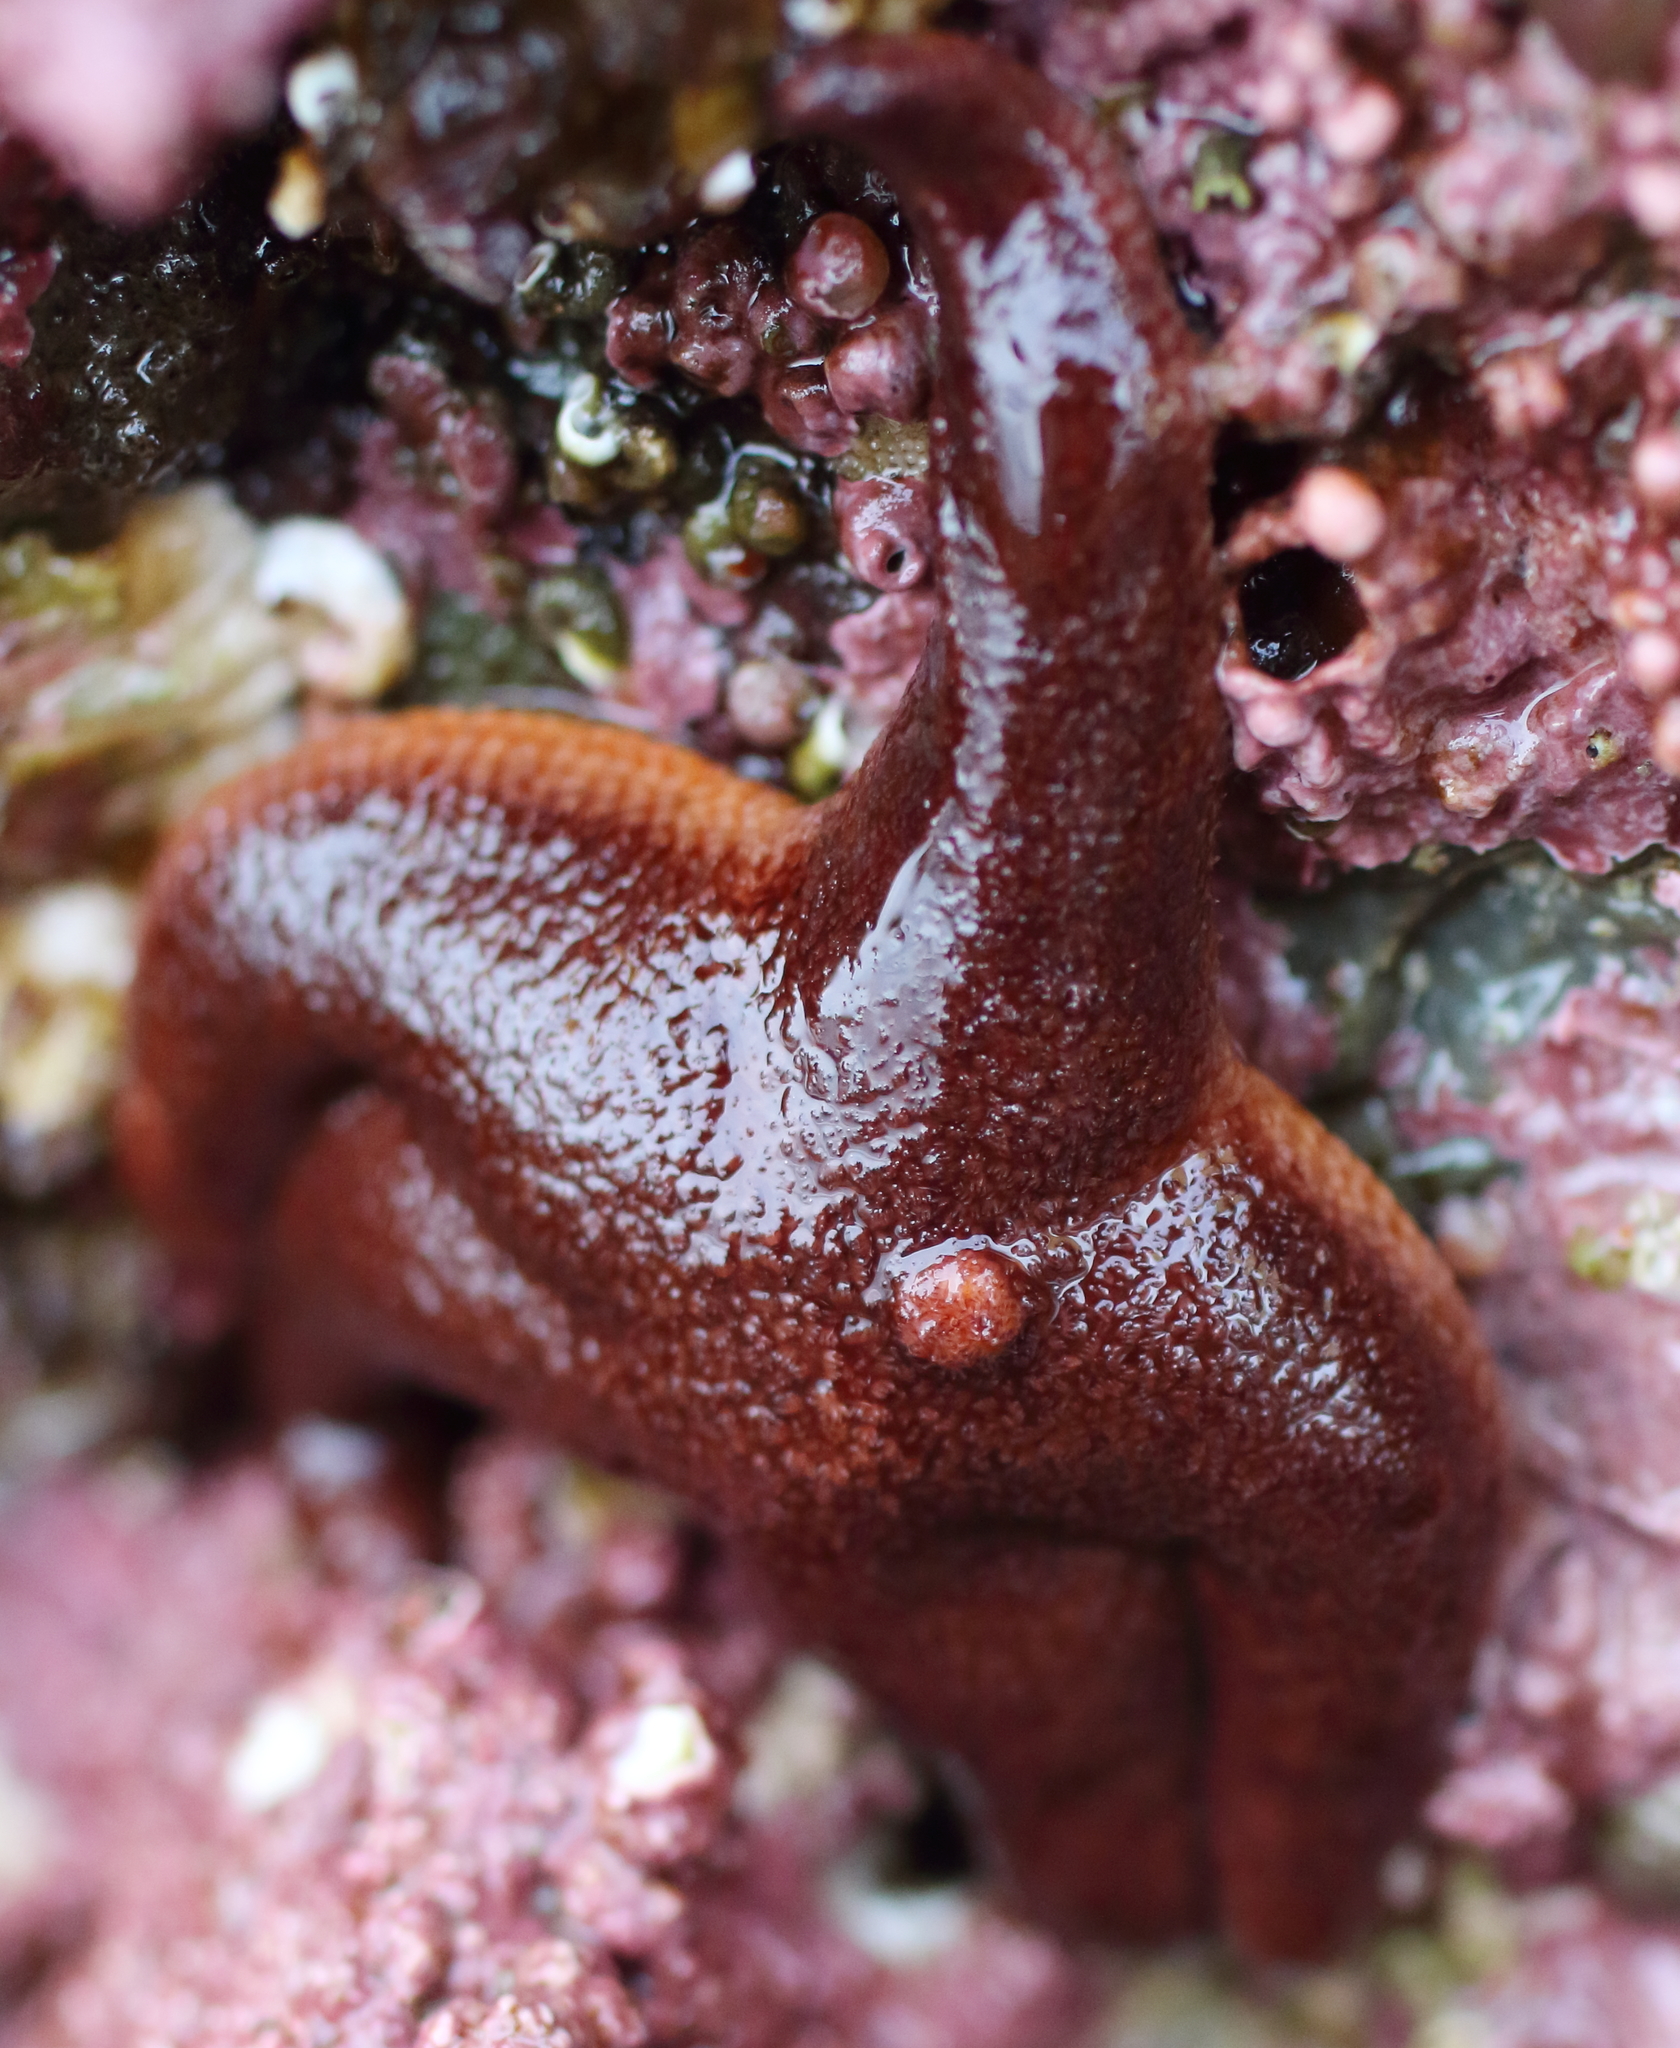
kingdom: Animalia
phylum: Echinodermata
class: Asteroidea
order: Spinulosida
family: Echinasteridae
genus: Henricia
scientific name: Henricia tumida
